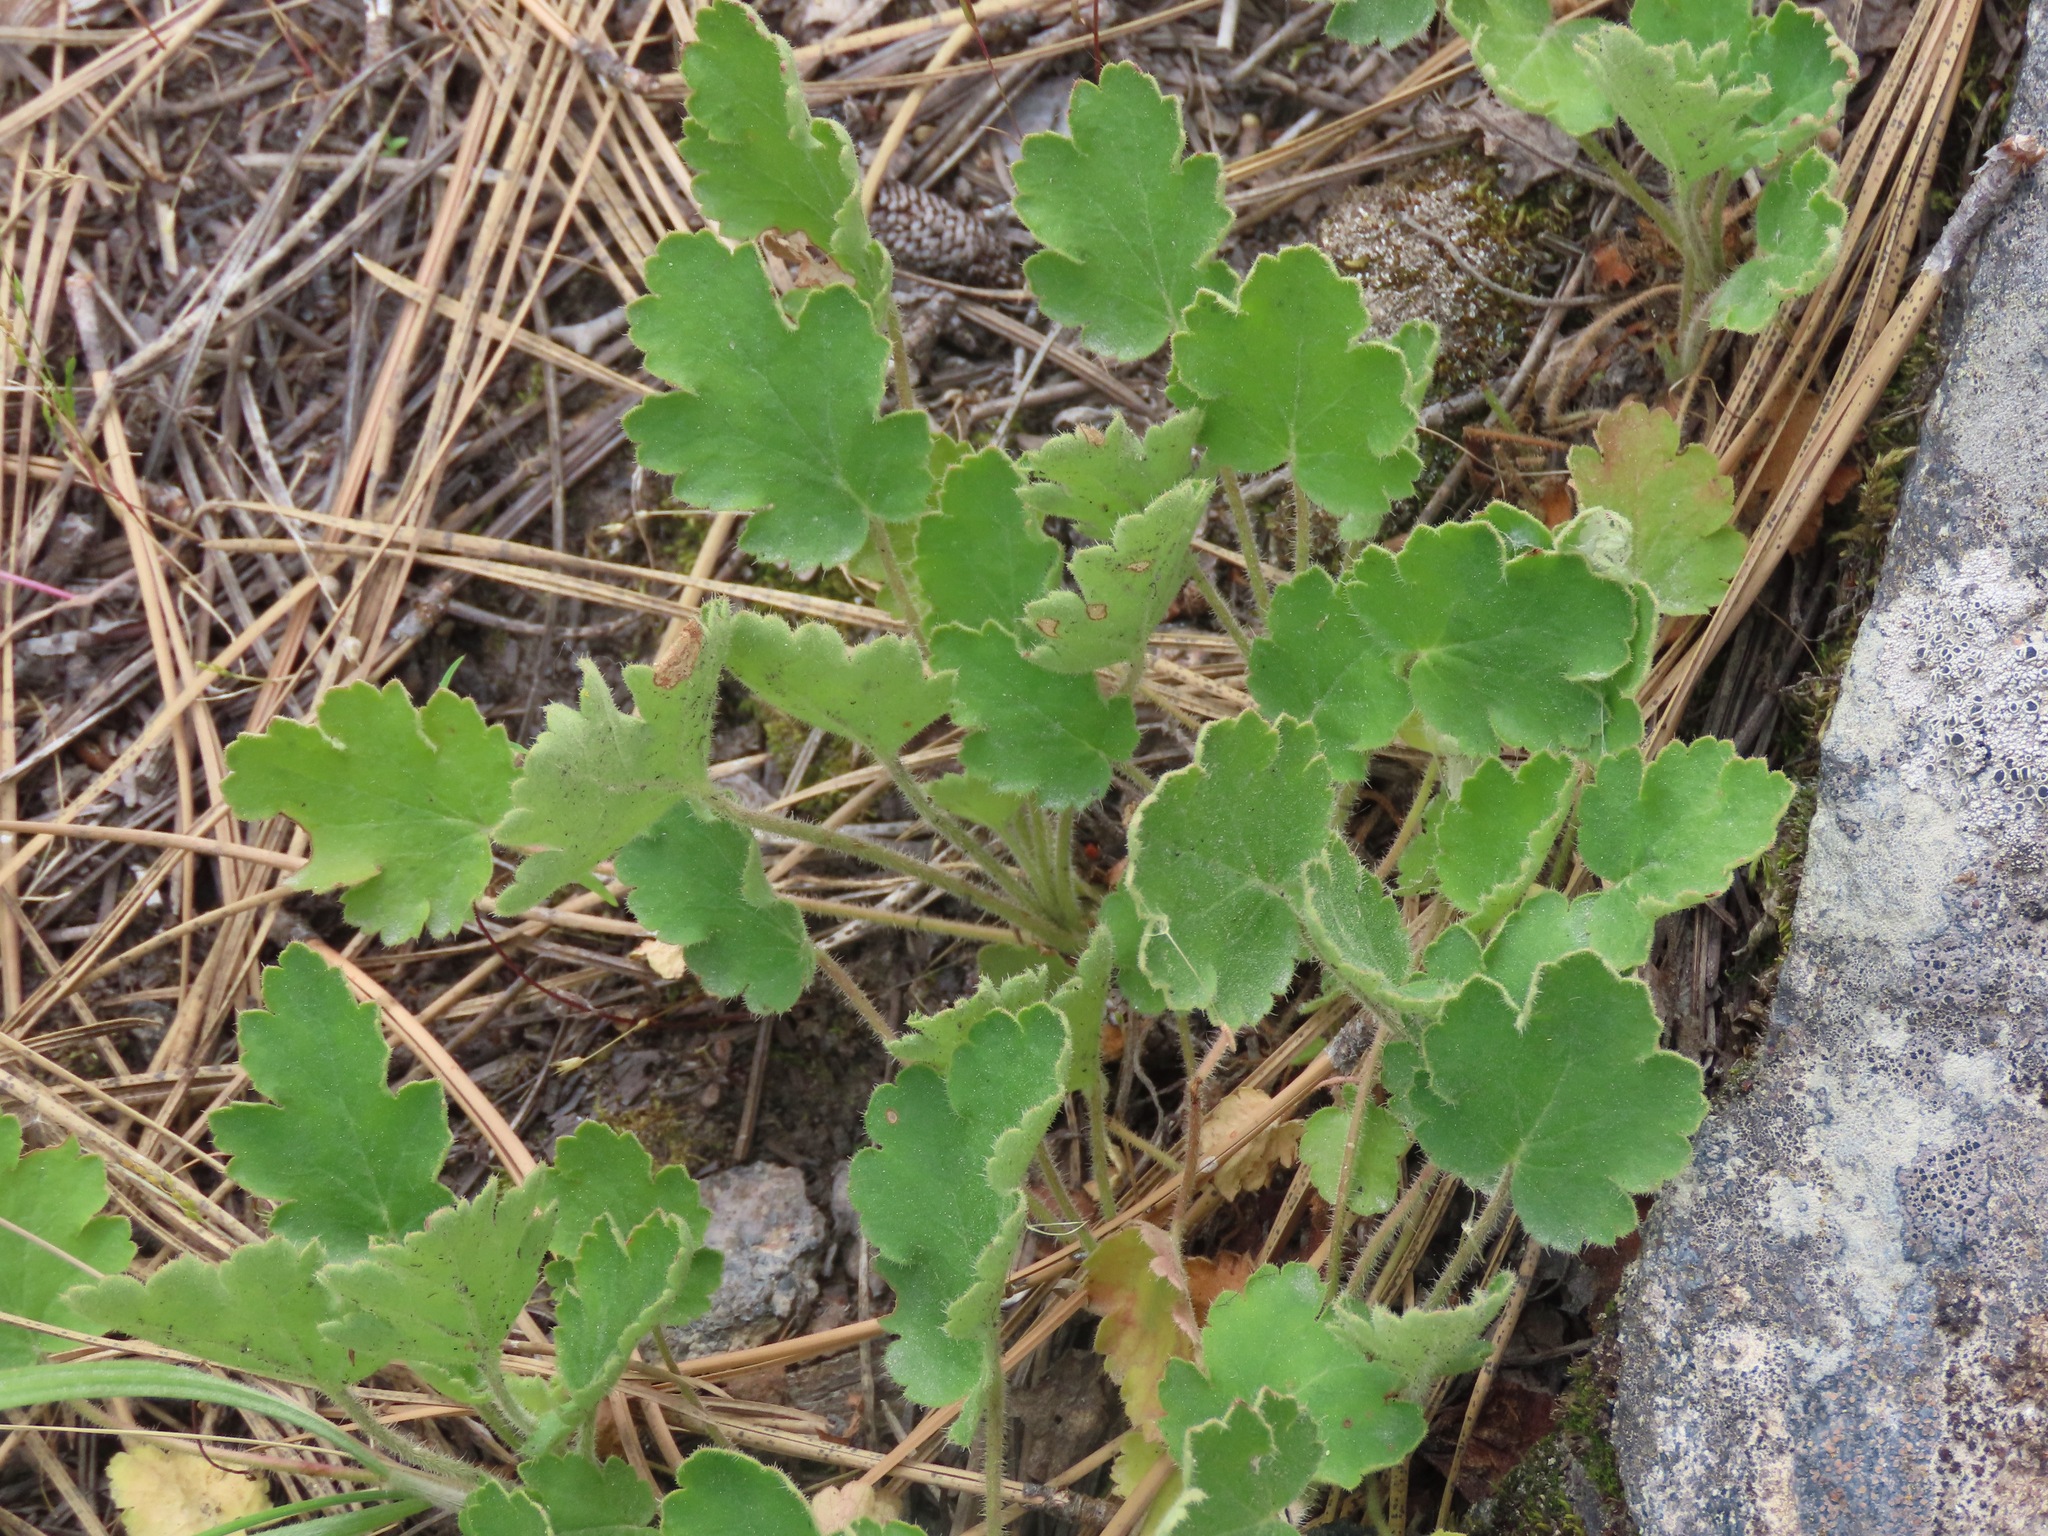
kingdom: Plantae
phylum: Tracheophyta
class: Magnoliopsida
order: Saxifragales
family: Saxifragaceae
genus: Heuchera
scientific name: Heuchera cylindrica
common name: Mat alumroot
